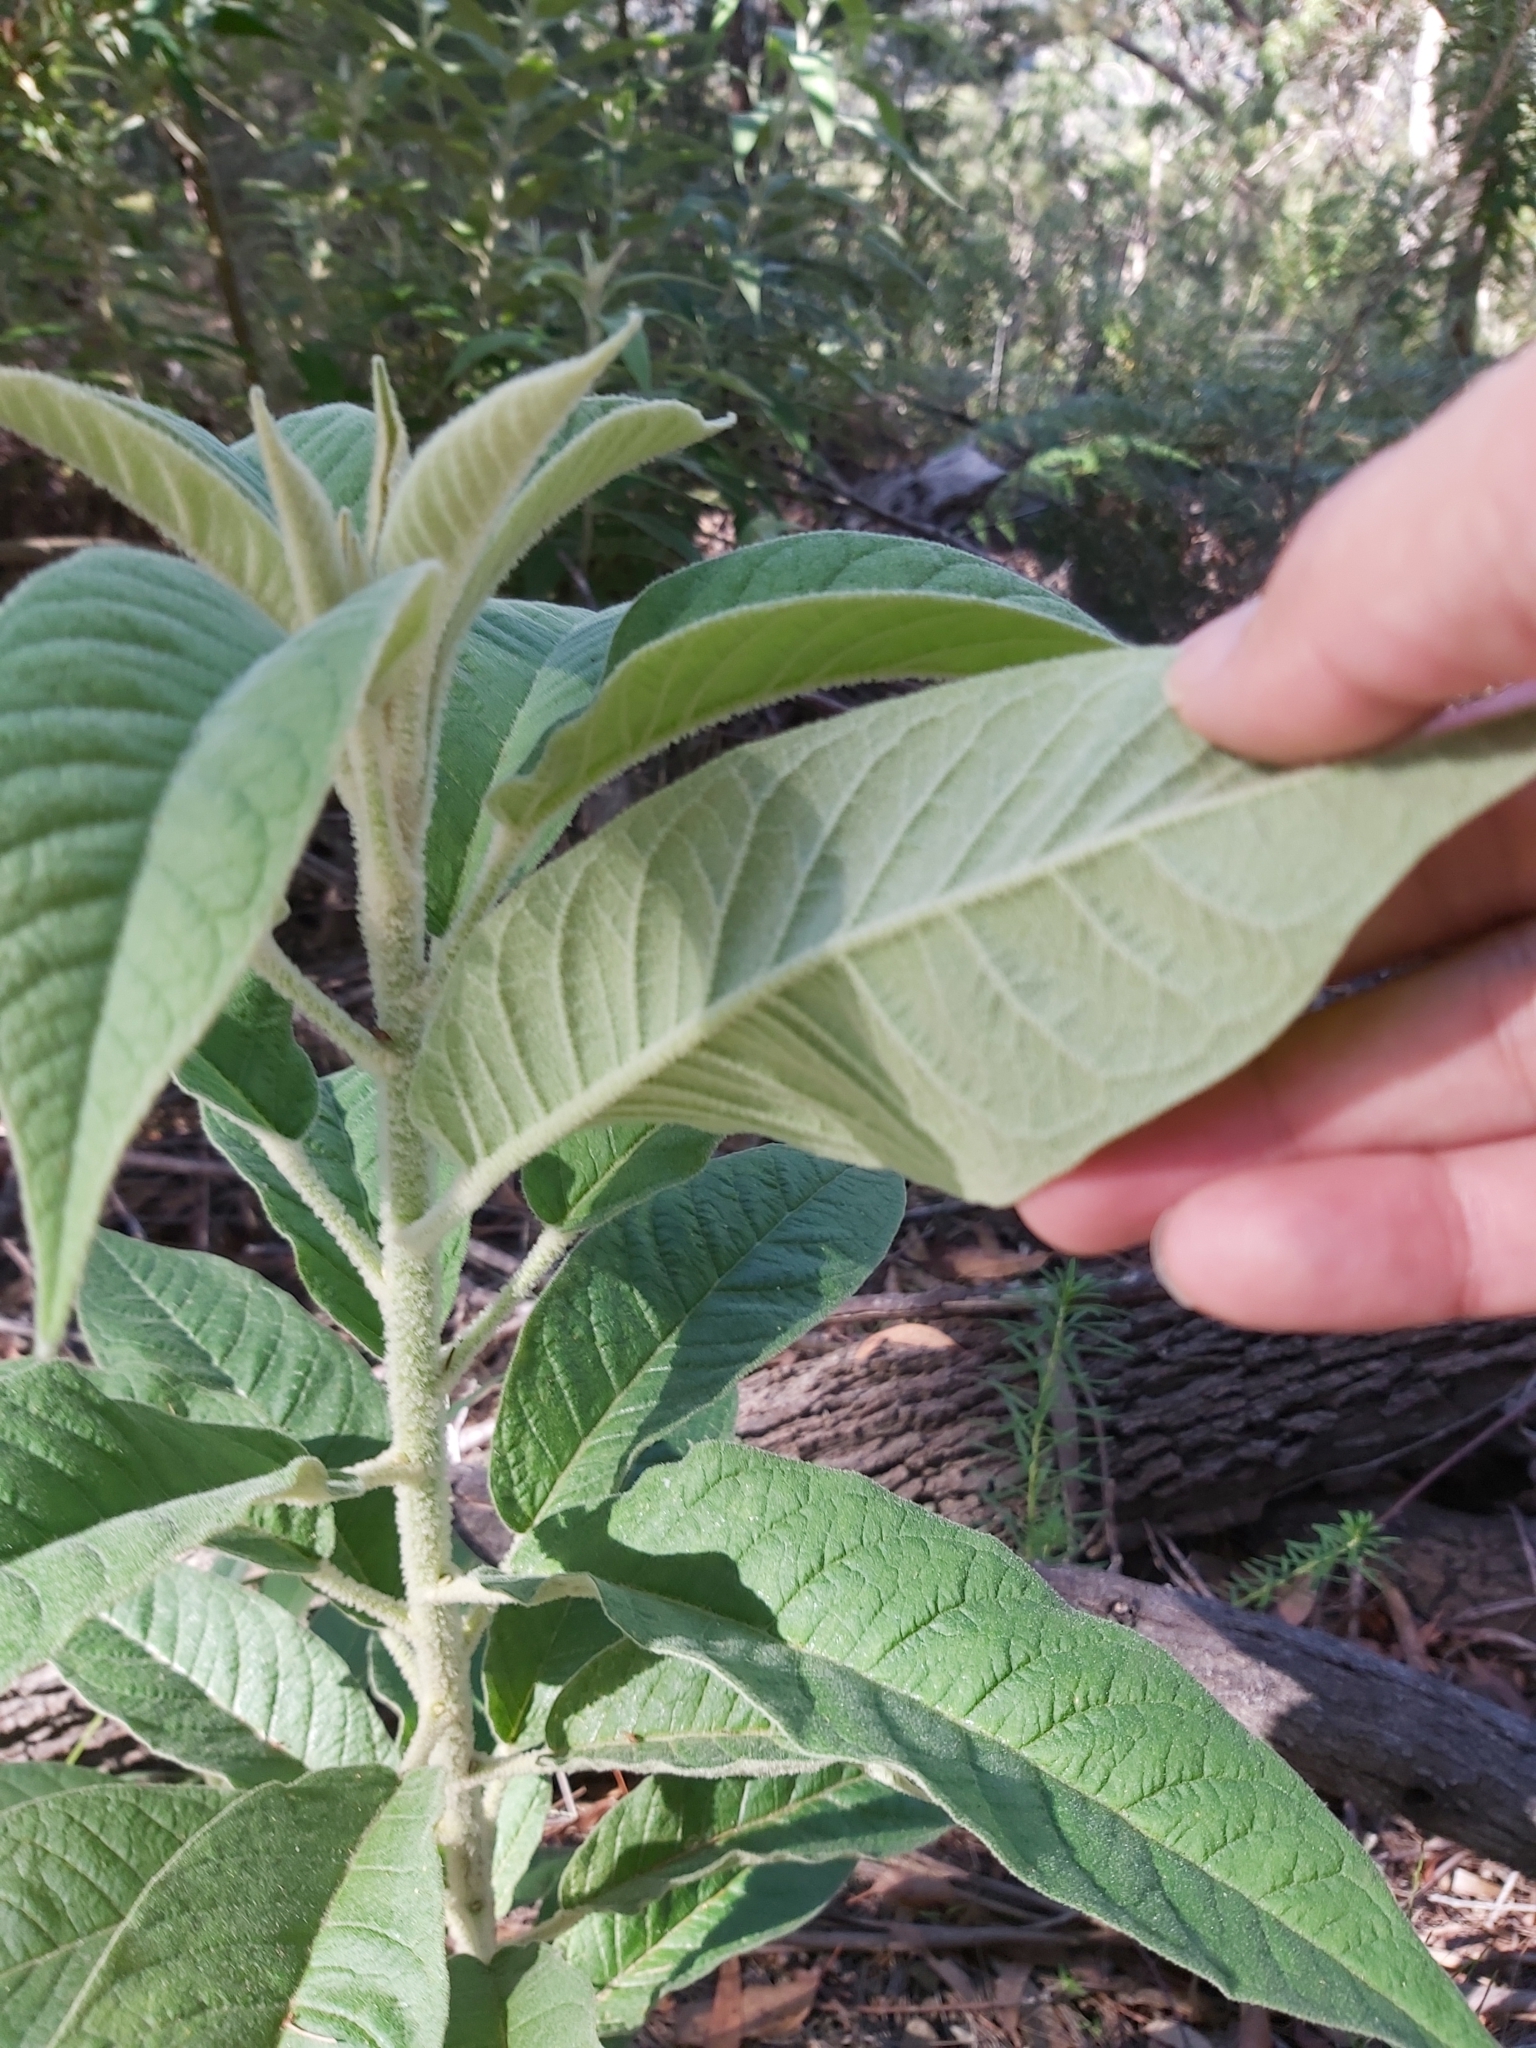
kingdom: Plantae
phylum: Tracheophyta
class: Magnoliopsida
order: Apiales
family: Araliaceae
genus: Astrotricha
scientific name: Astrotricha floccosa
